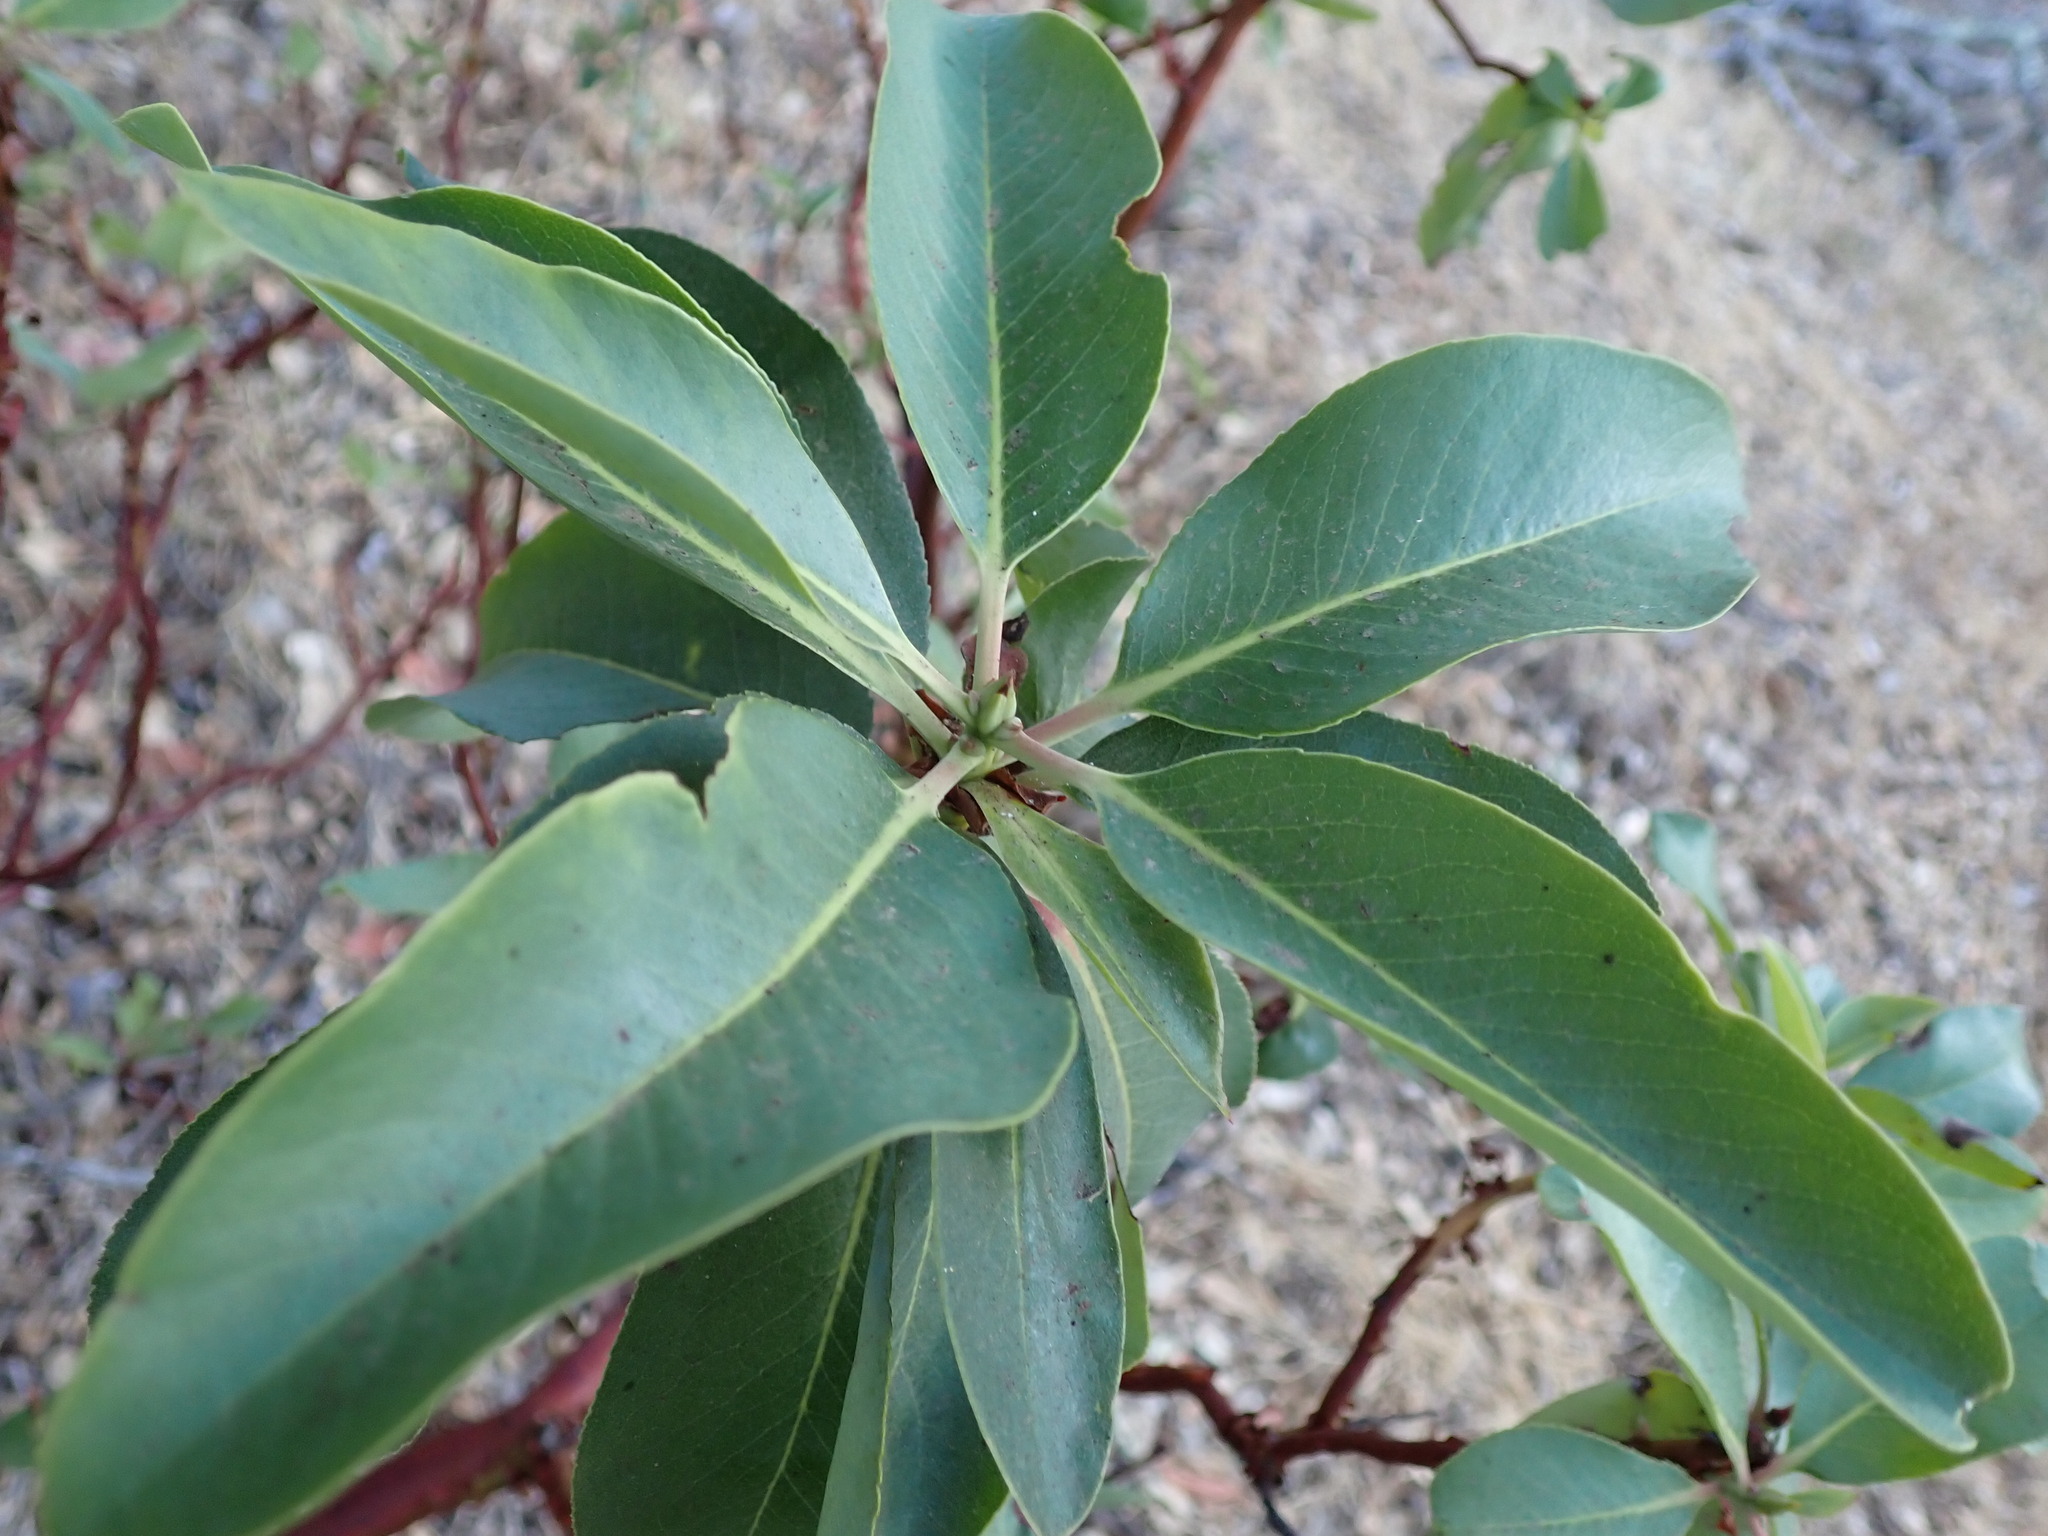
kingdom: Plantae
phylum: Tracheophyta
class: Magnoliopsida
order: Ericales
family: Ericaceae
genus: Arbutus
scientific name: Arbutus menziesii
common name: Pacific madrone
